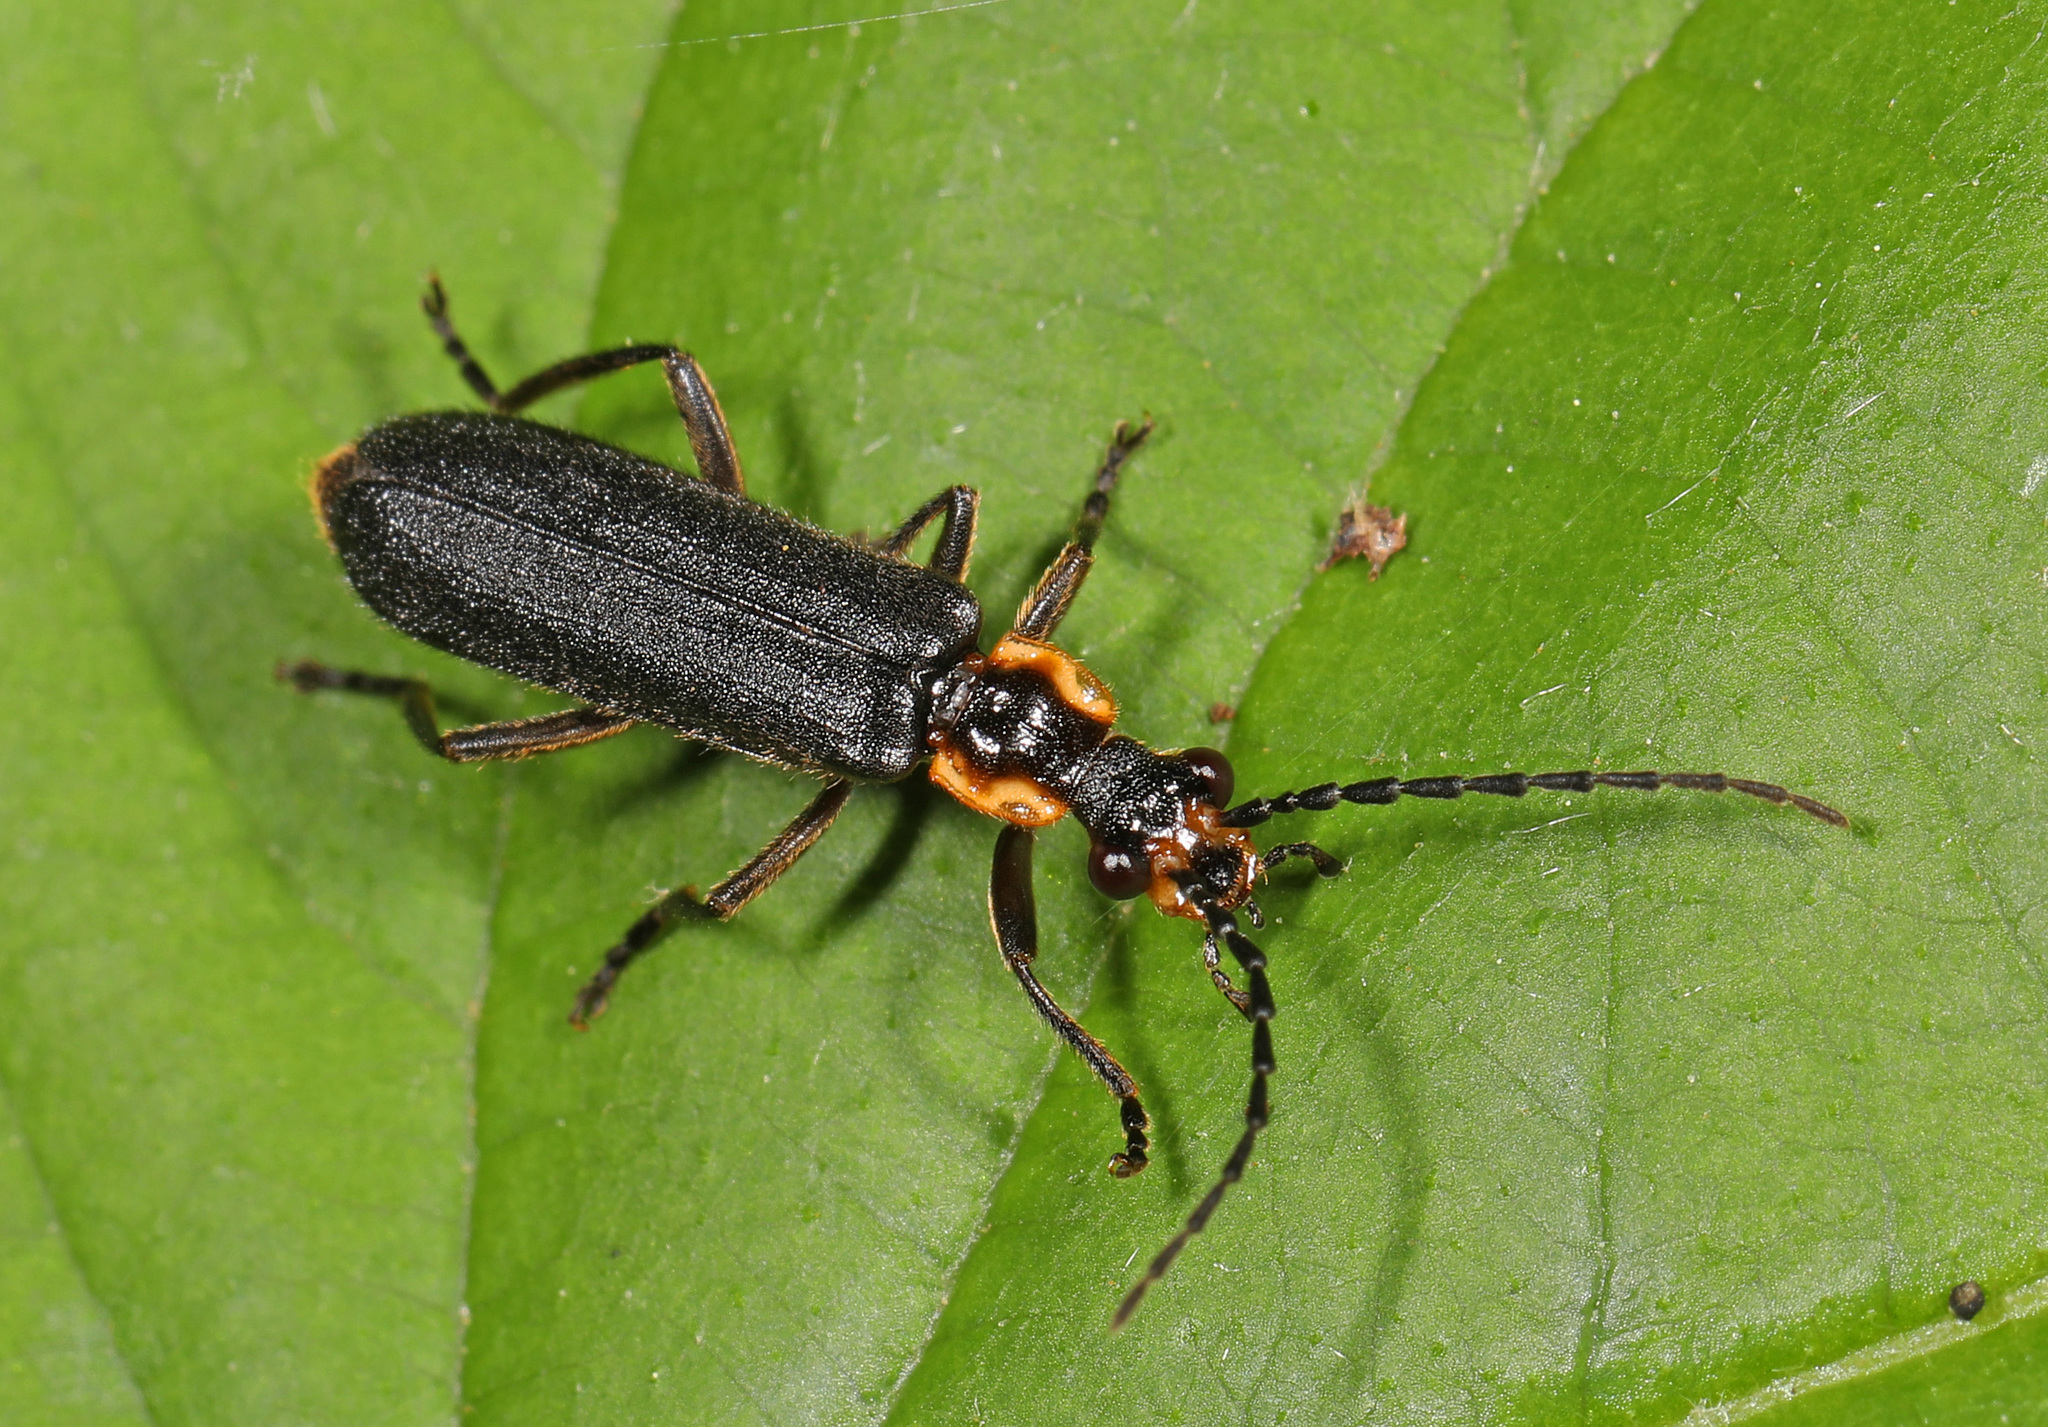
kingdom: Animalia
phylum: Arthropoda
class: Insecta
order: Coleoptera
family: Cantharidae
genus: Podabrus
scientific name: Podabrus rugosulus
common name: Wrinkled soldier beetle
